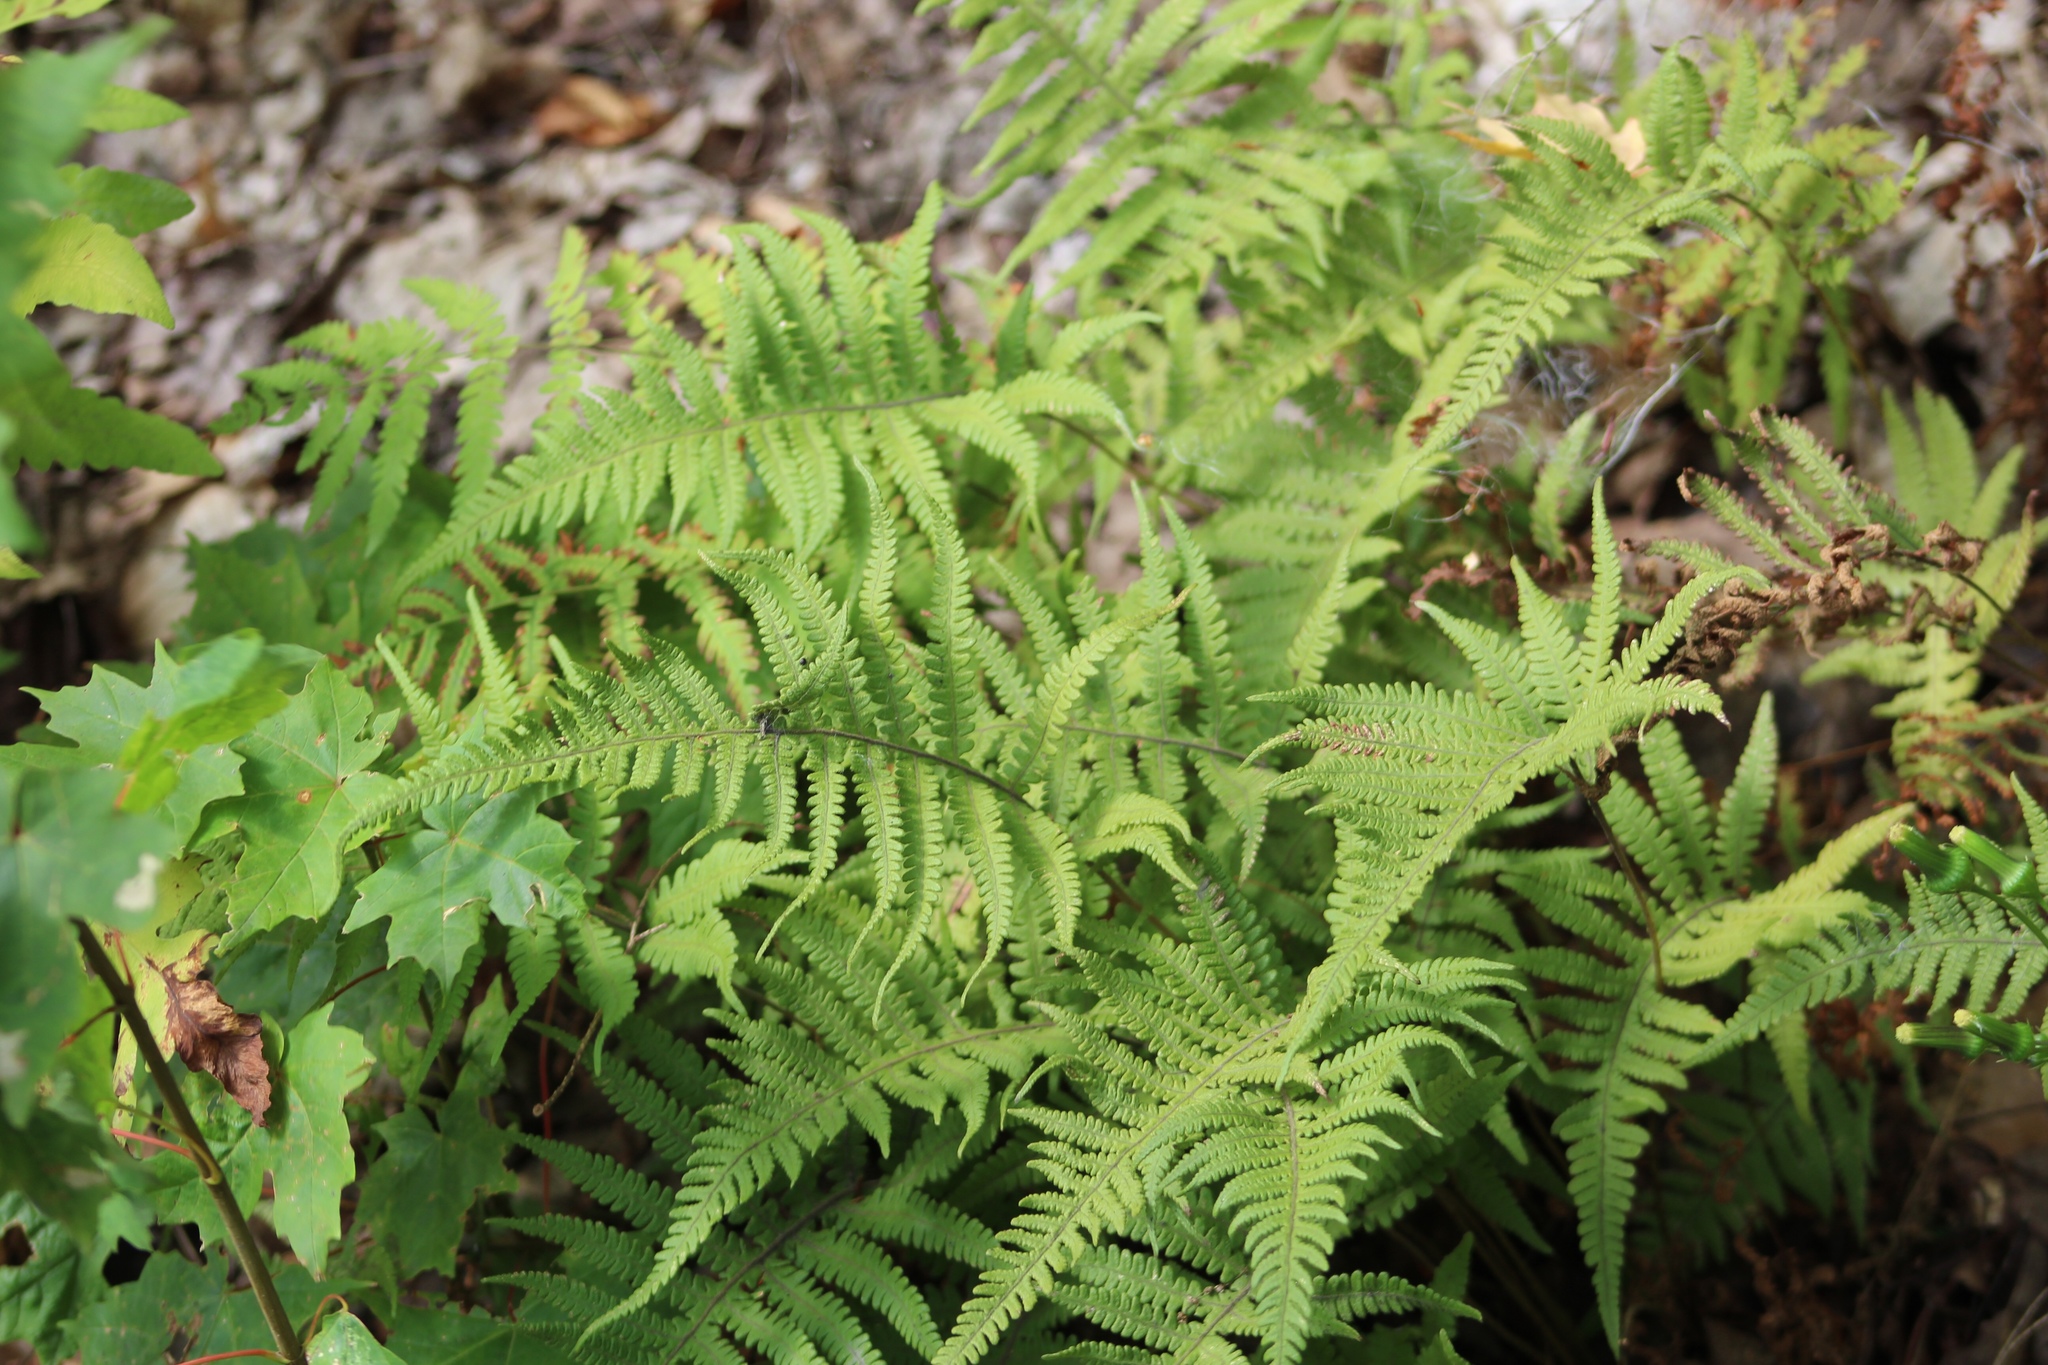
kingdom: Plantae
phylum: Tracheophyta
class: Polypodiopsida
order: Polypodiales
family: Thelypteridaceae
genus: Phegopteris
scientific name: Phegopteris connectilis
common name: Beech fern
